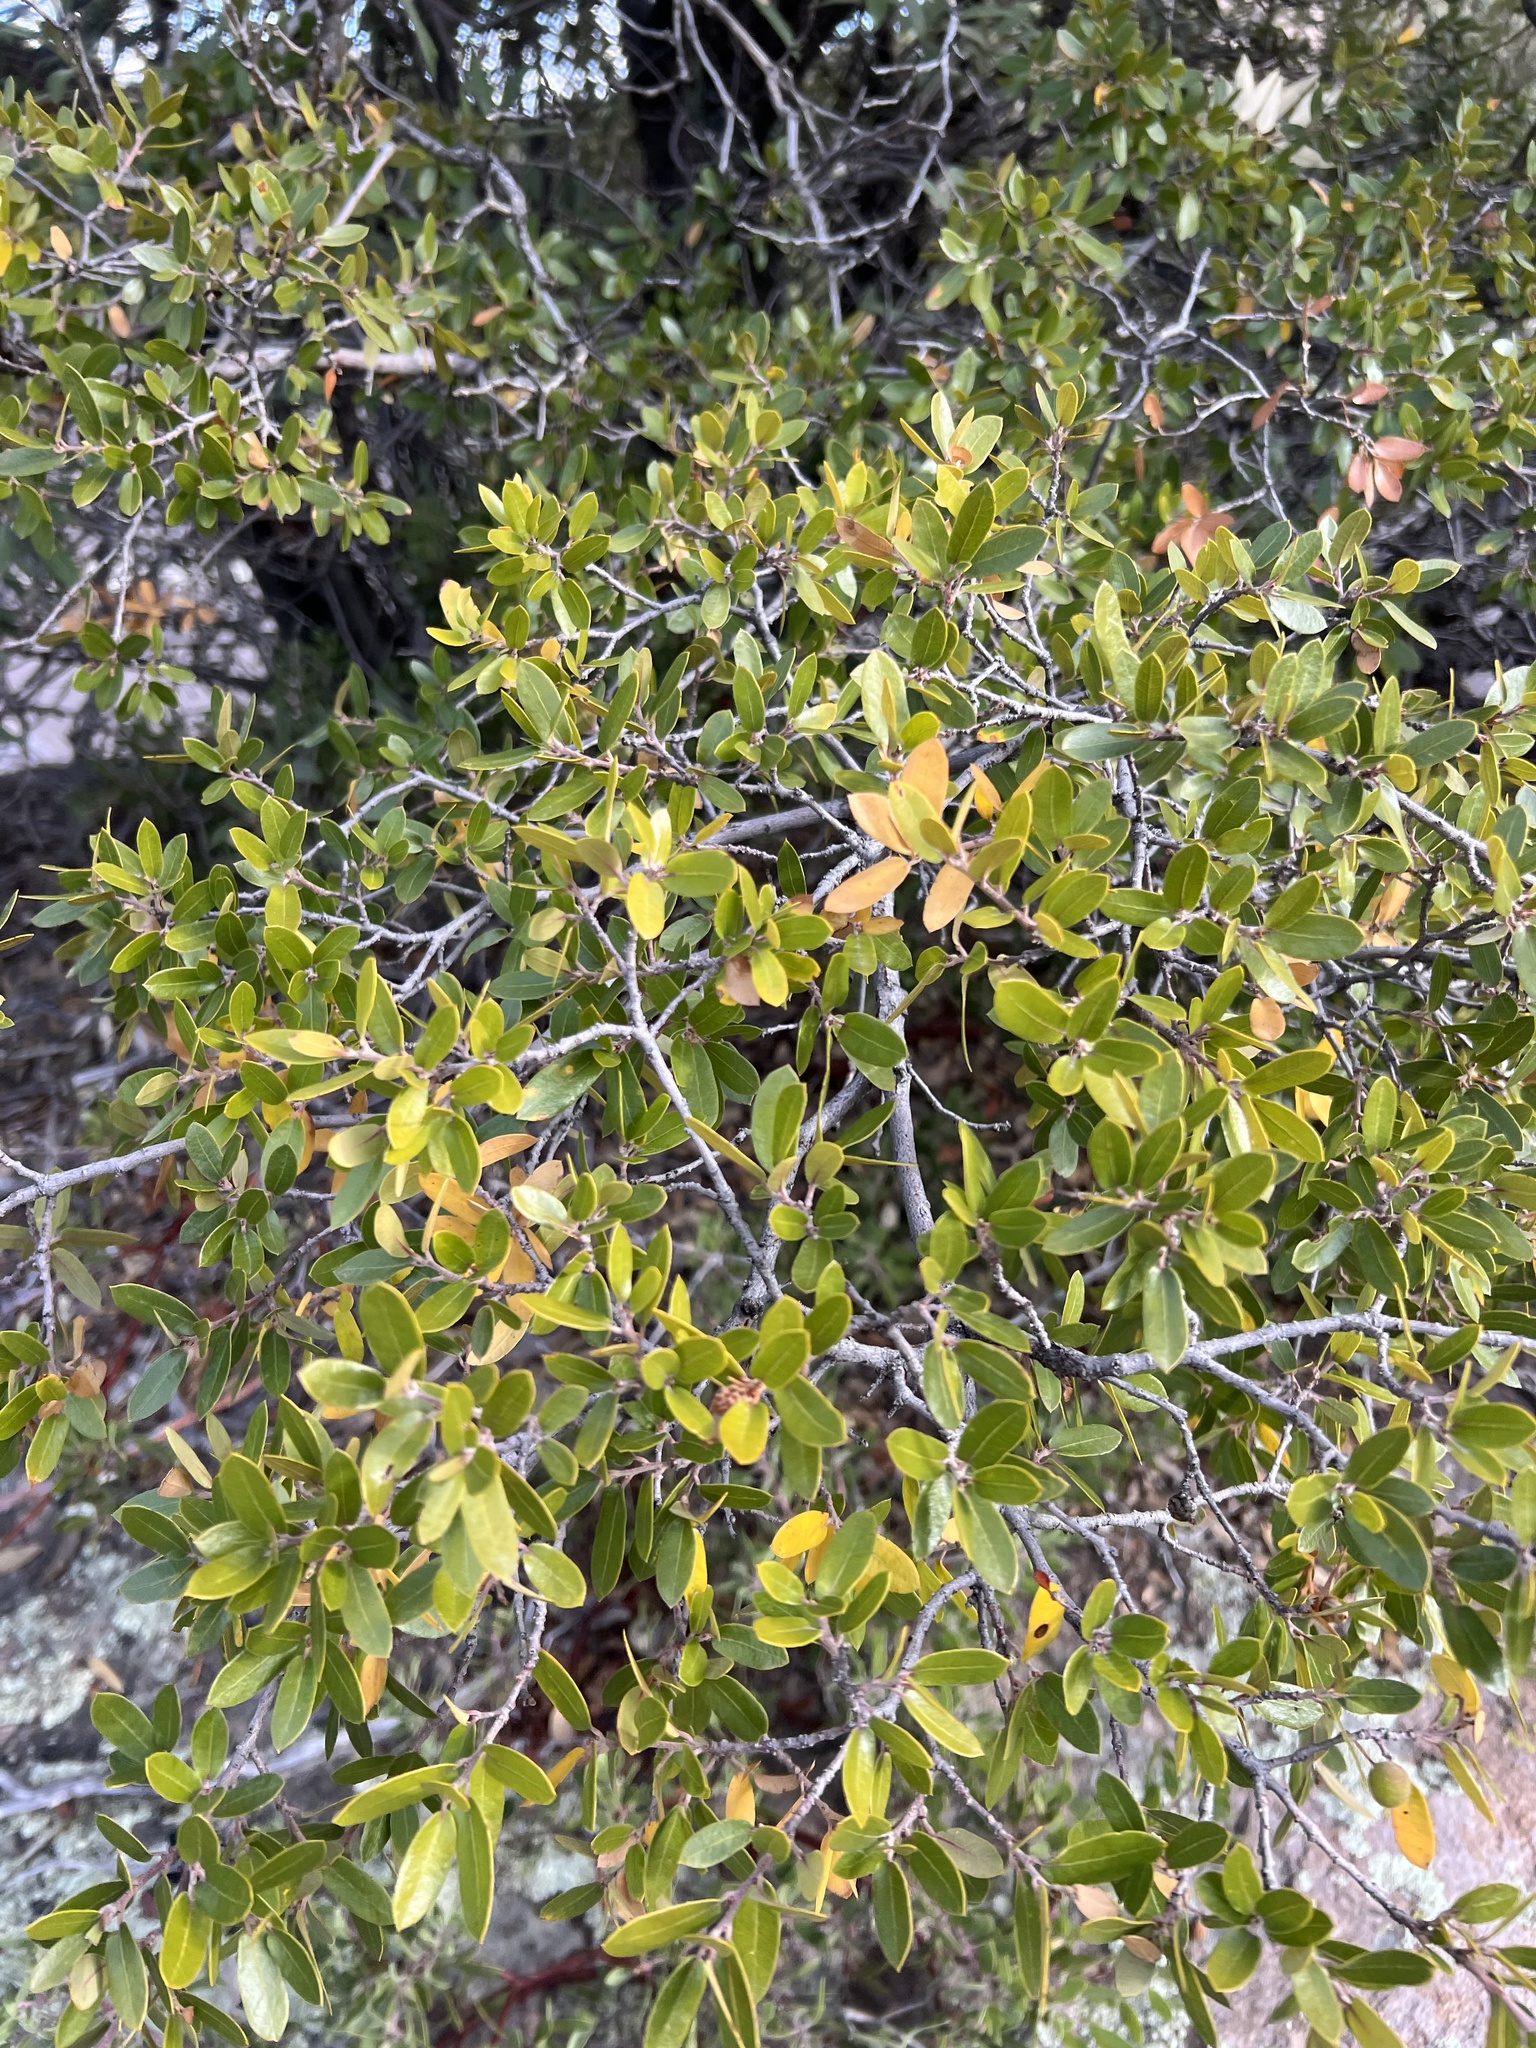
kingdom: Plantae
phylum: Tracheophyta
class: Magnoliopsida
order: Fagales
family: Fagaceae
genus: Quercus
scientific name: Quercus toumeyi
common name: Toumey oak
